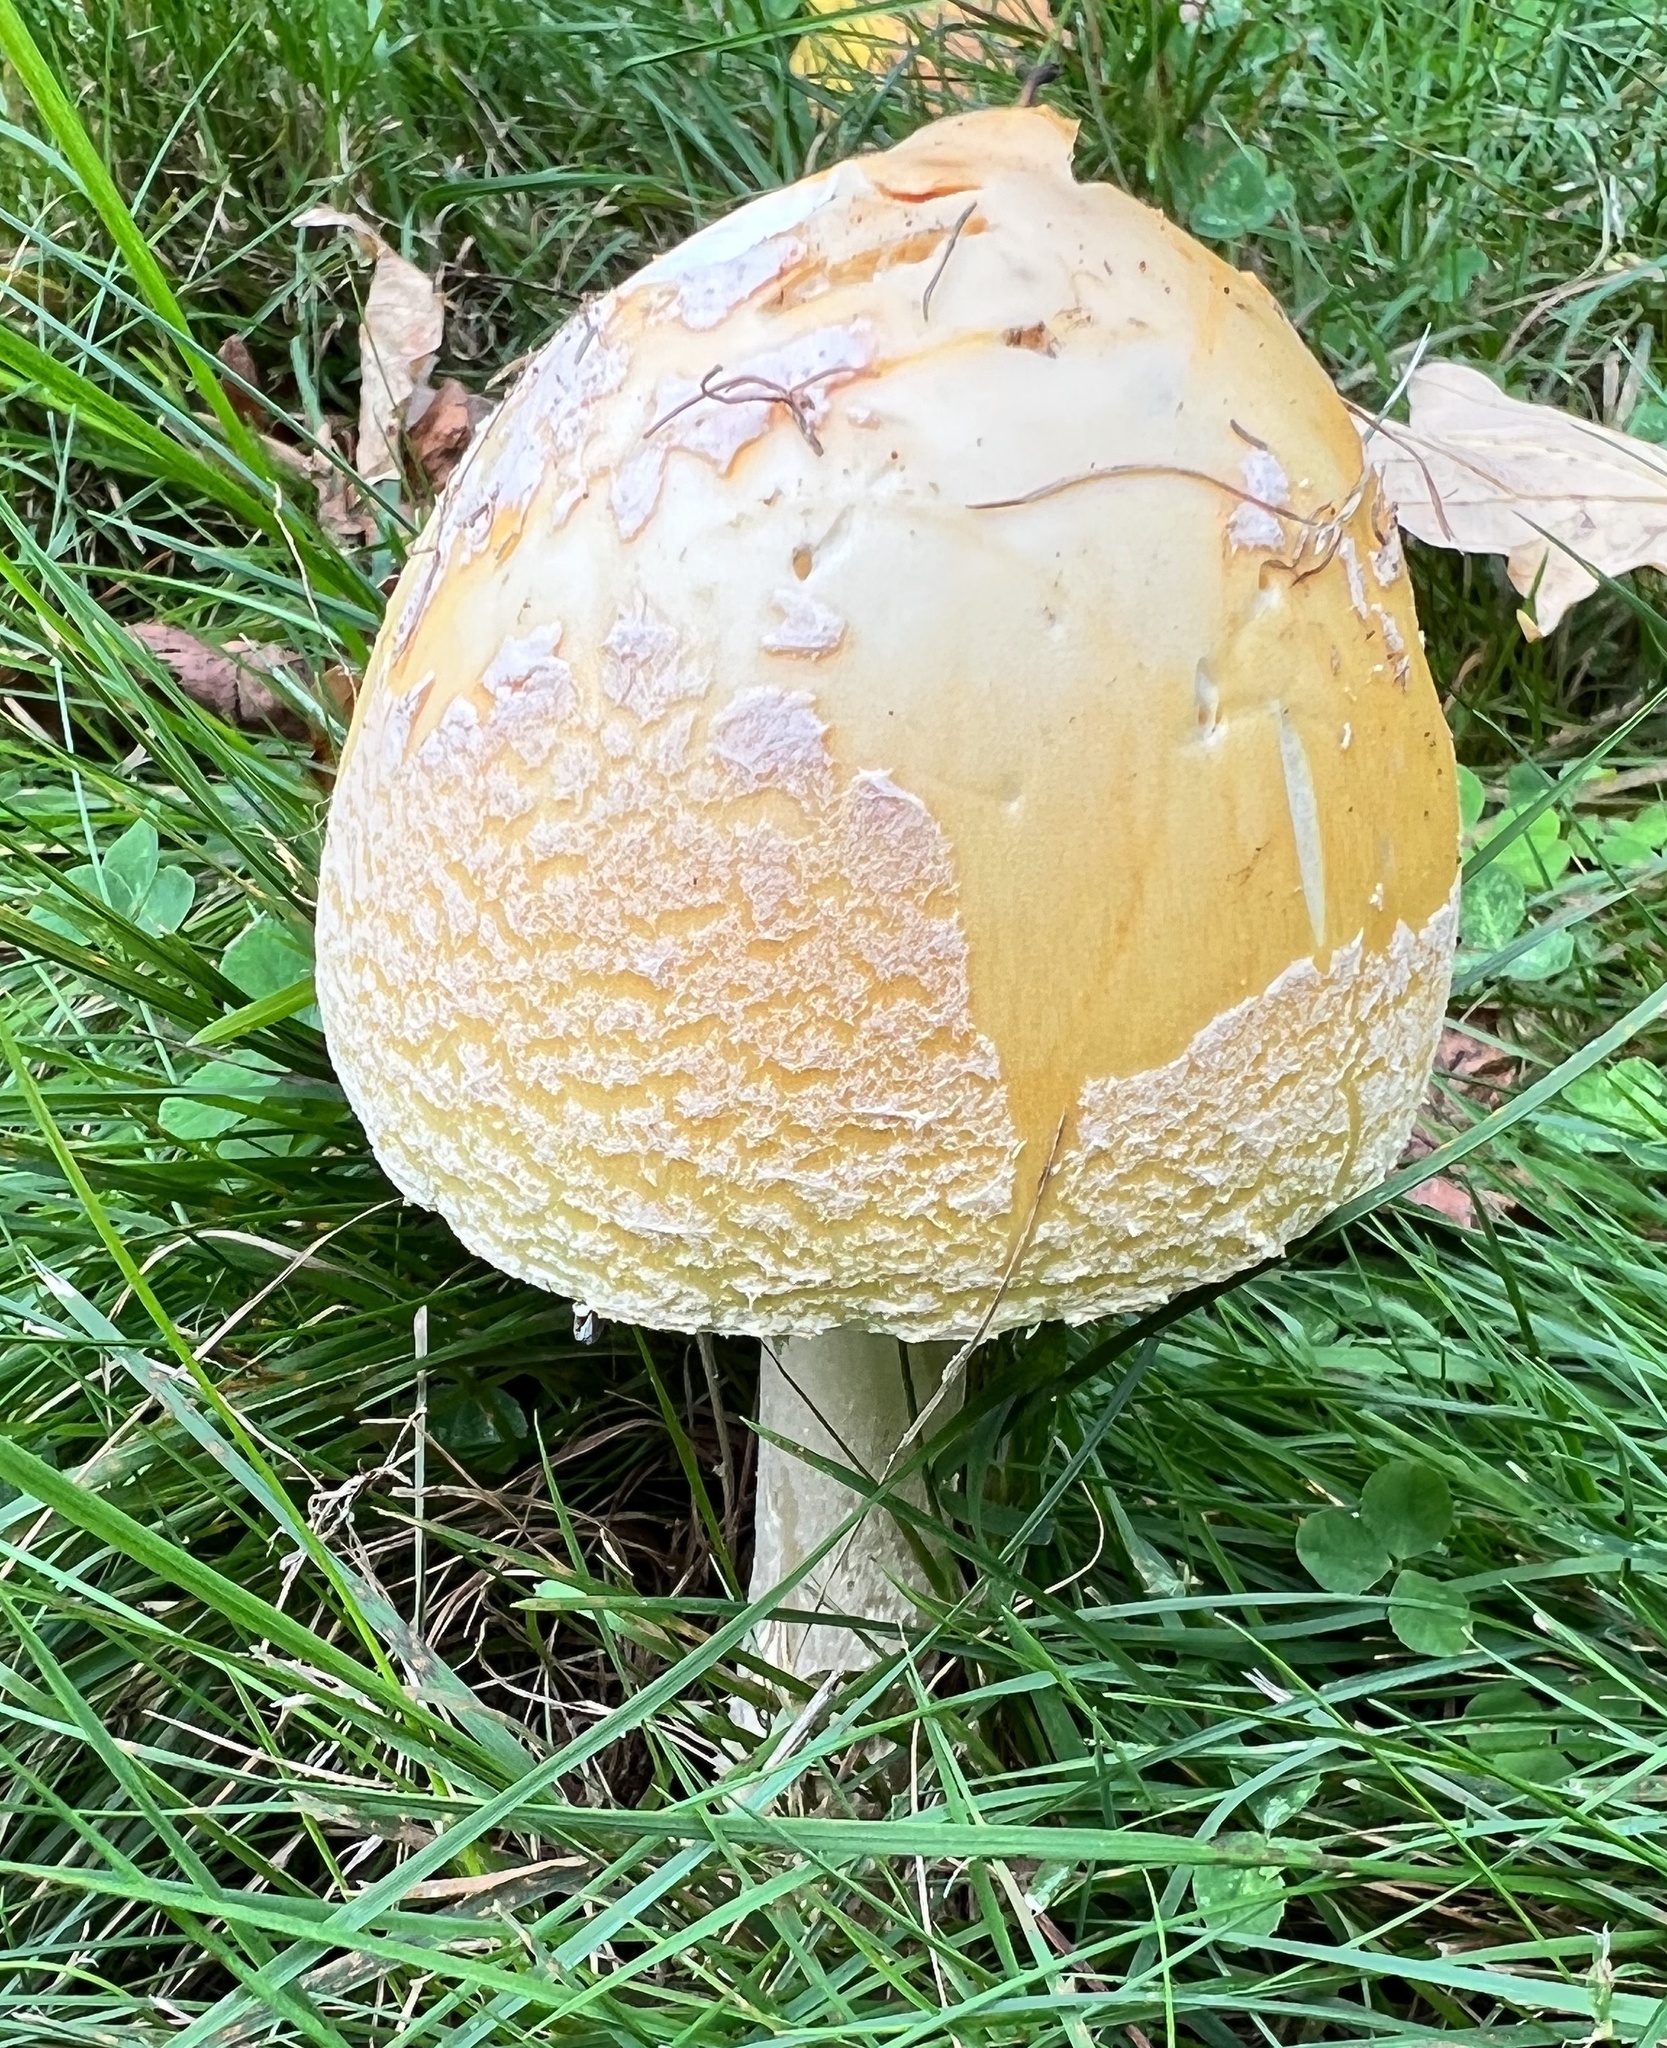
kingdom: Fungi
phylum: Basidiomycota
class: Agaricomycetes
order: Agaricales
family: Amanitaceae
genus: Amanita
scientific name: Amanita muscaria
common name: Fly agaric
